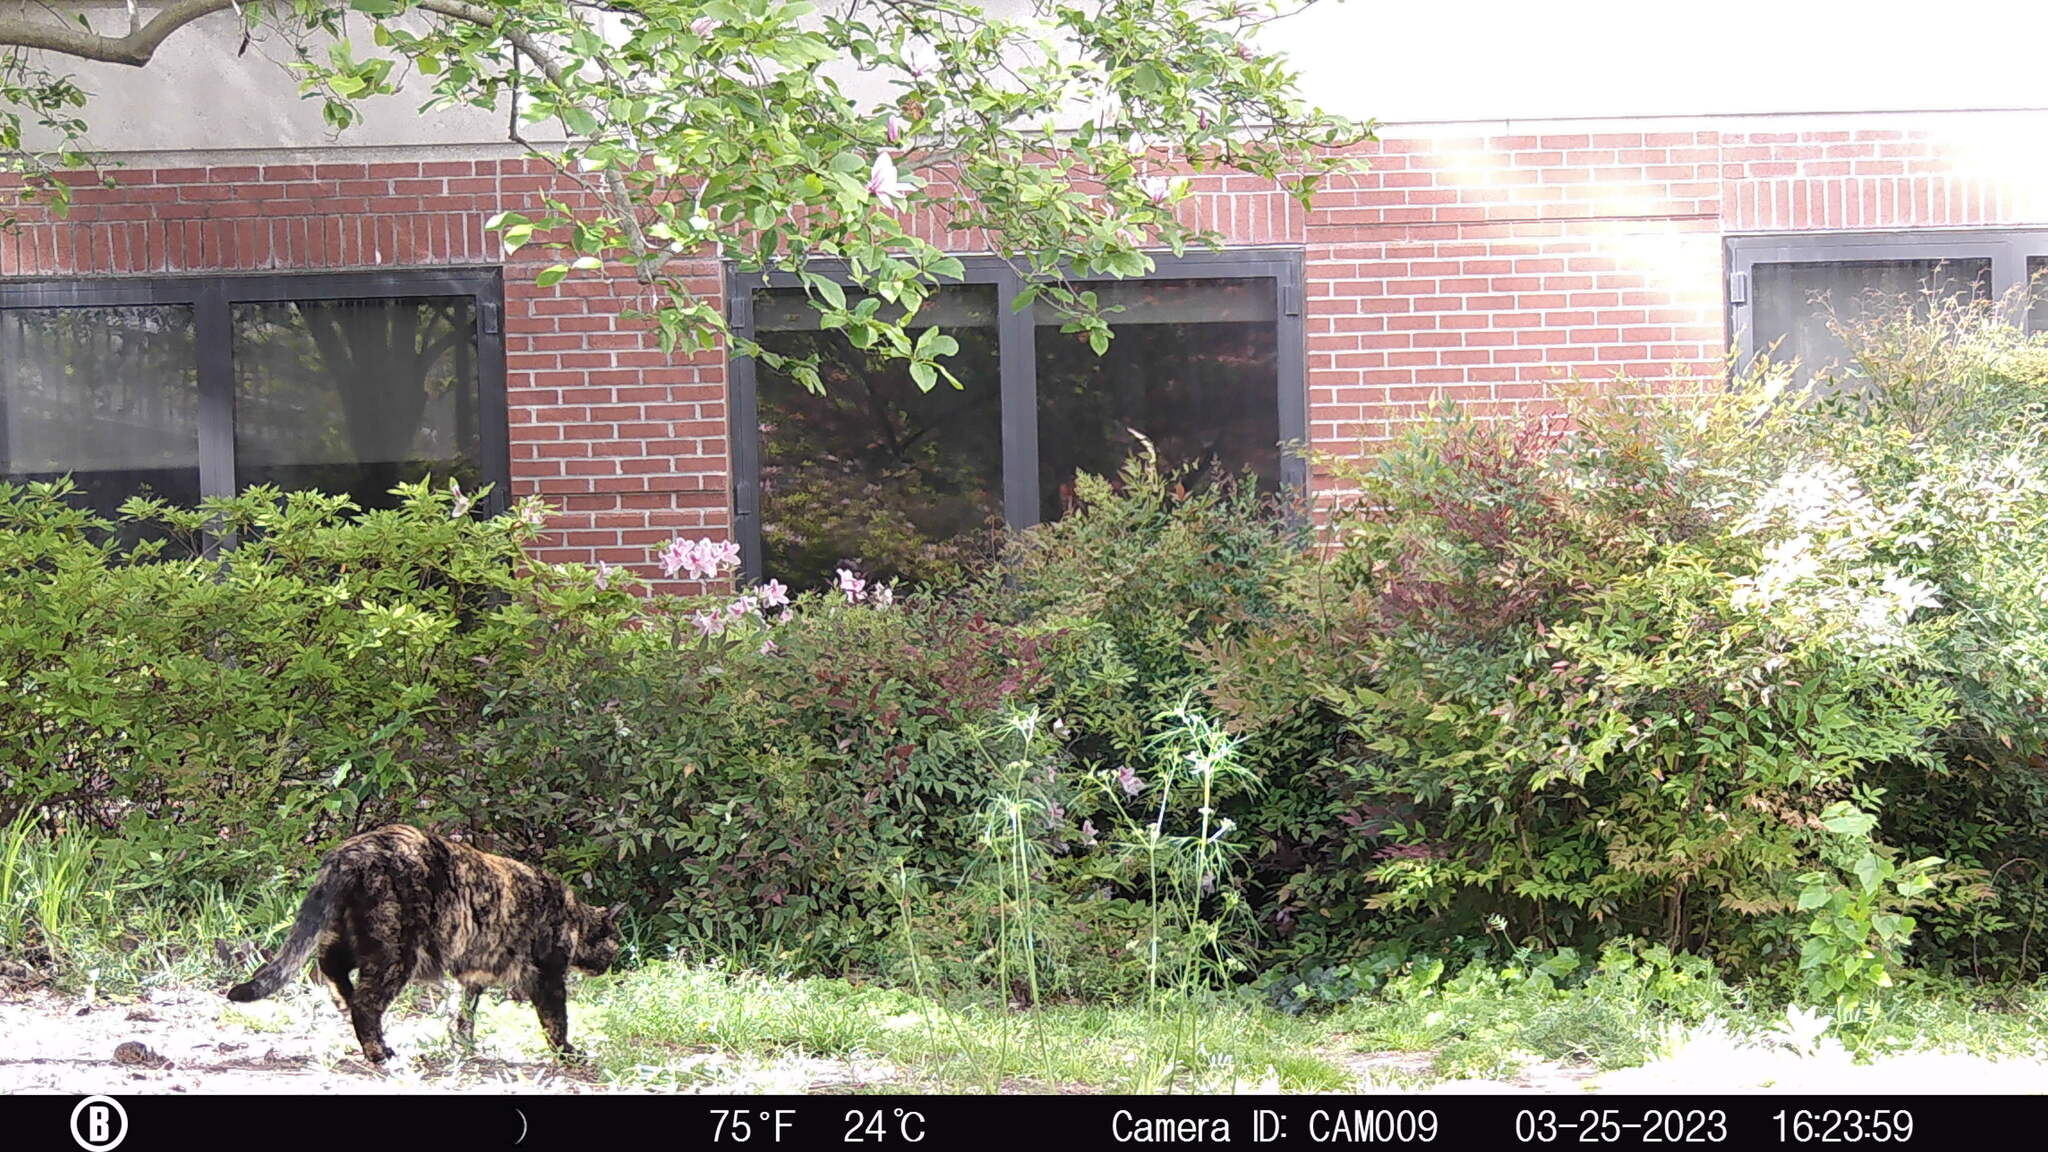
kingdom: Animalia
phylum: Chordata
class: Mammalia
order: Carnivora
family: Felidae
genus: Felis
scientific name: Felis catus
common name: Domestic cat
